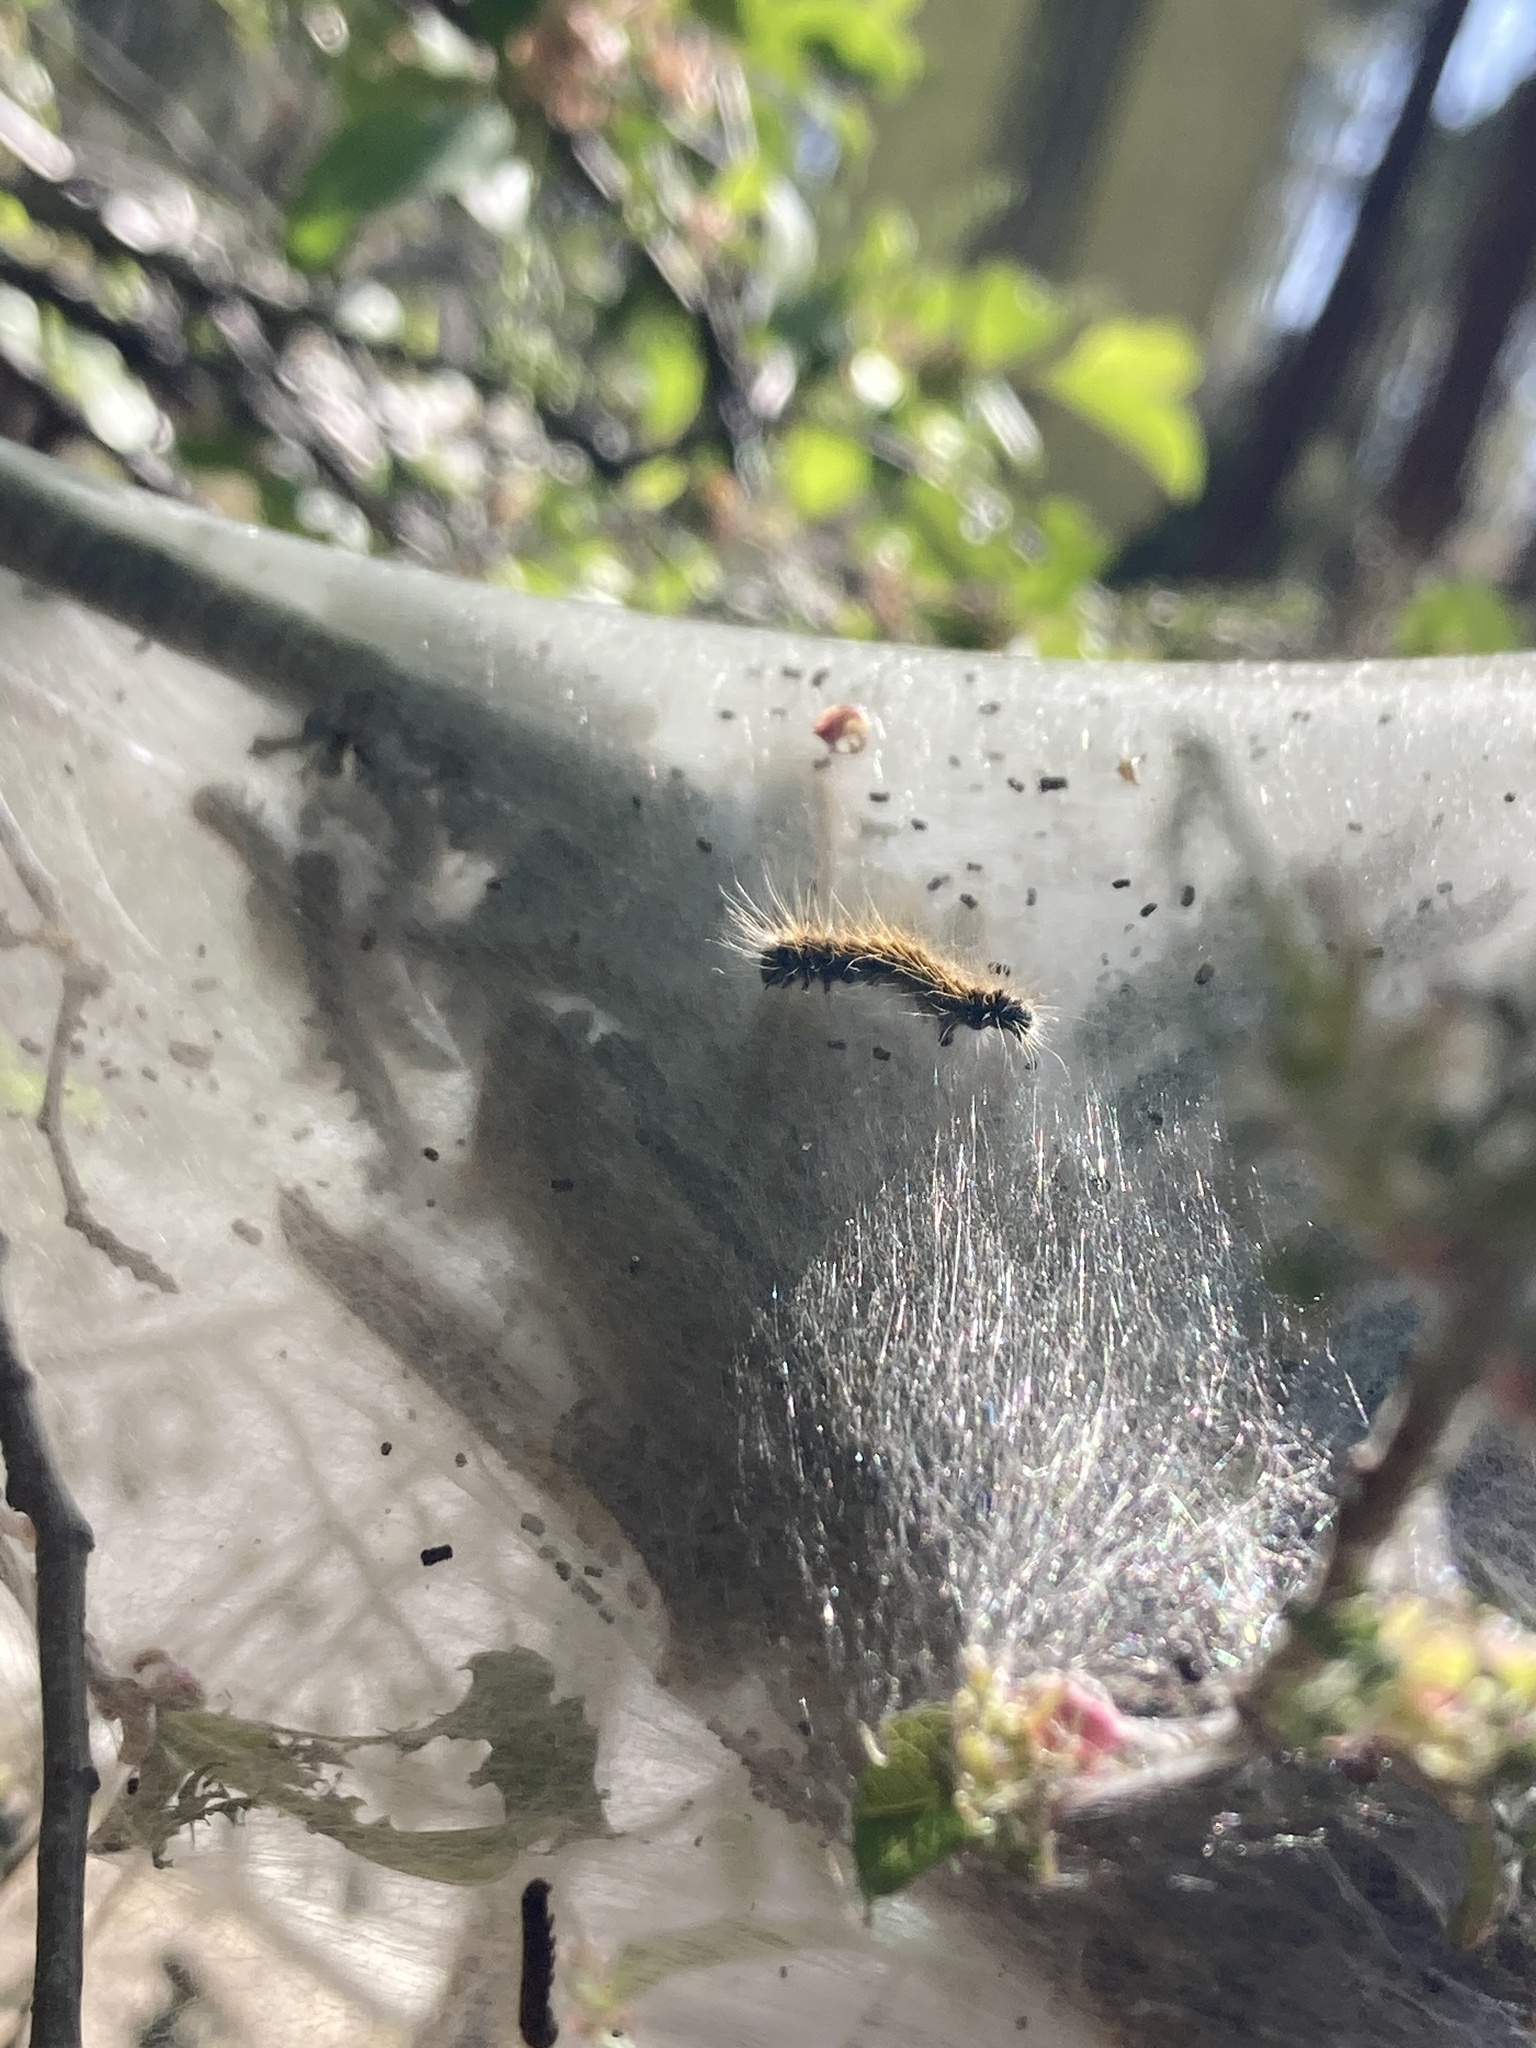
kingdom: Animalia
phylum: Arthropoda
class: Insecta
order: Lepidoptera
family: Lasiocampidae
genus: Malacosoma
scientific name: Malacosoma incurva
